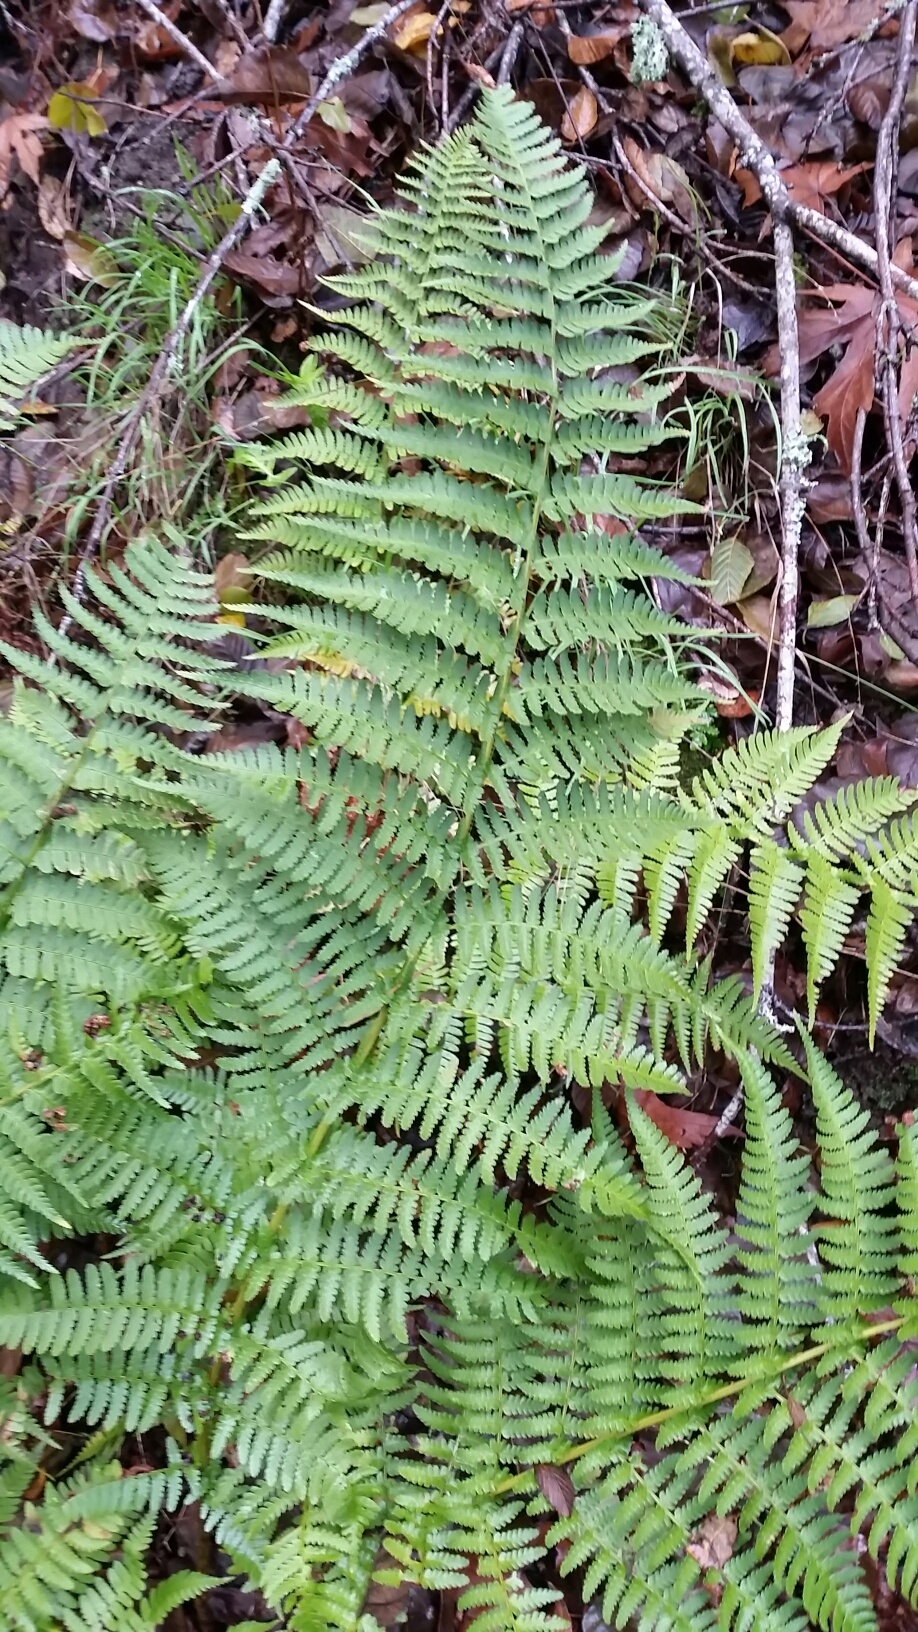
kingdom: Plantae
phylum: Tracheophyta
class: Polypodiopsida
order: Polypodiales
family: Dryopteridaceae
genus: Dryopteris
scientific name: Dryopteris arguta
